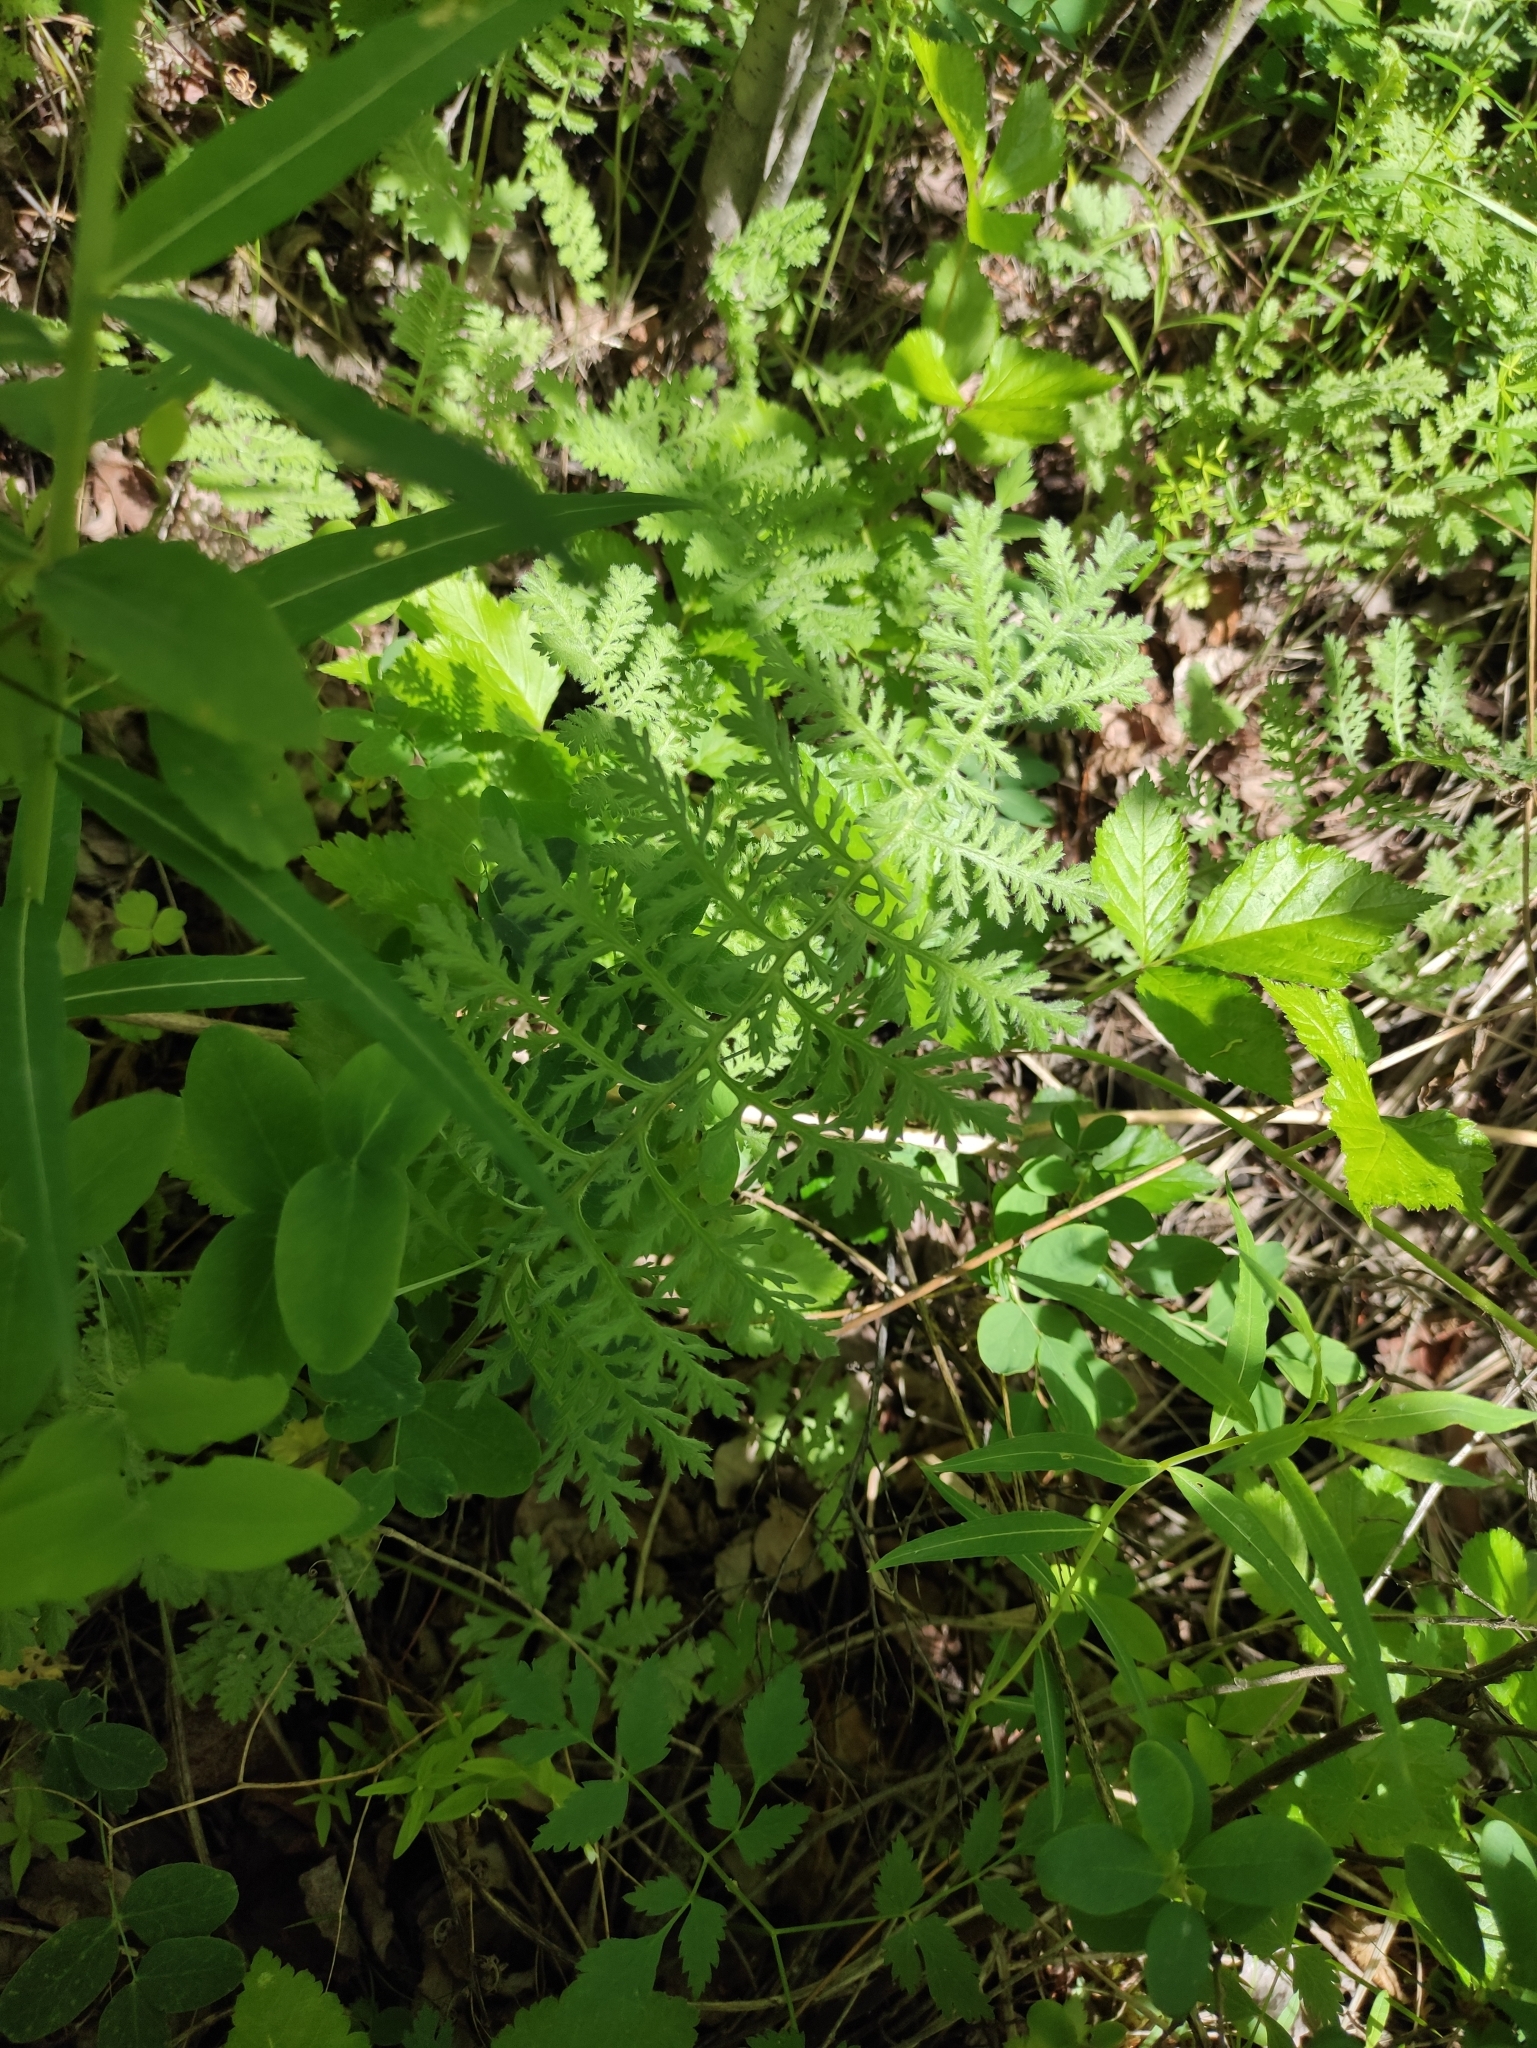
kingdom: Plantae
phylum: Tracheophyta
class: Magnoliopsida
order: Asterales
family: Asteraceae
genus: Artemisia
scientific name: Artemisia tanacetifolia
